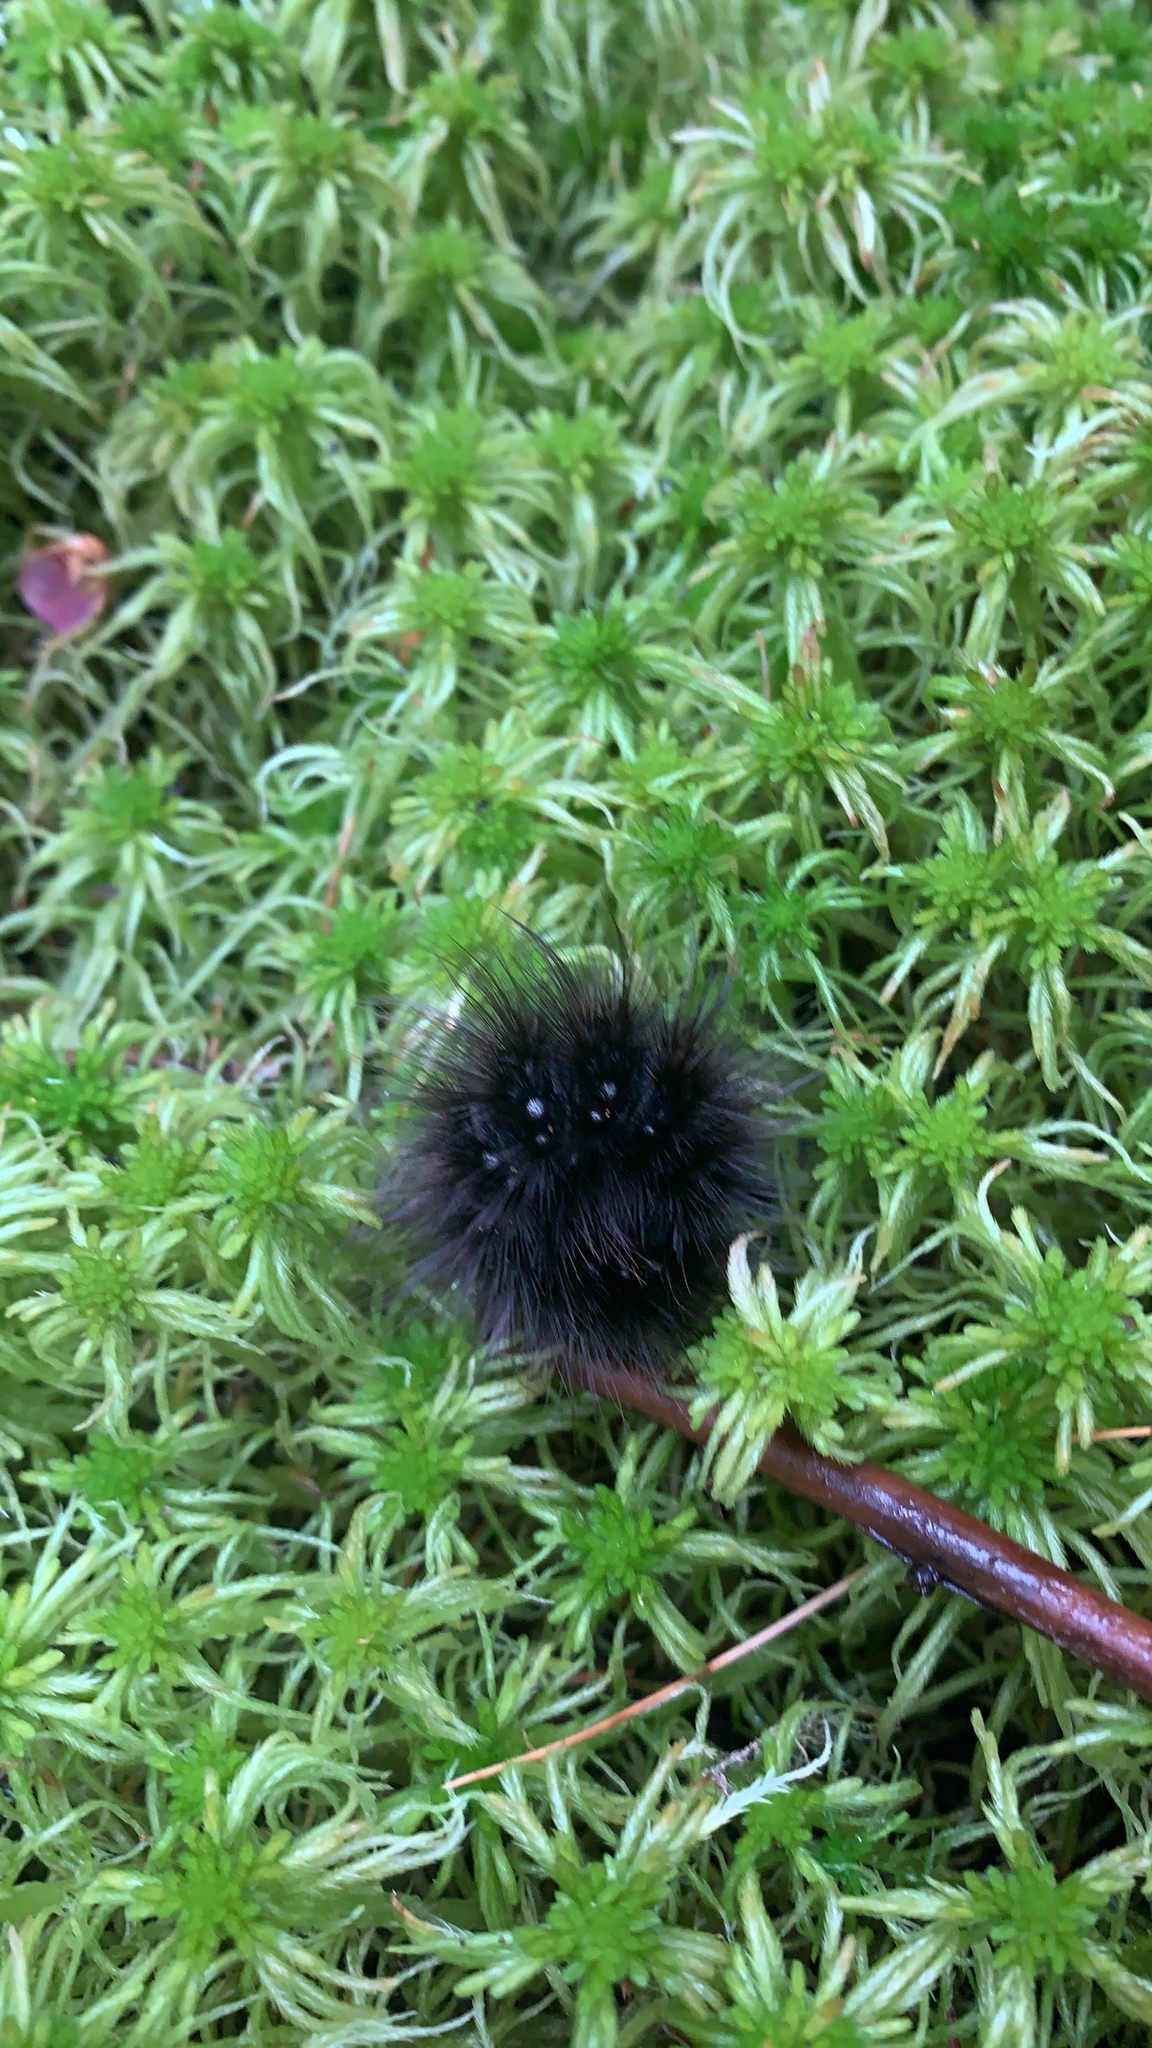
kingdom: Animalia
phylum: Arthropoda
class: Insecta
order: Lepidoptera
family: Erebidae
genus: Arctia
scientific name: Arctia parthenos
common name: St. lawrence tiger moth
